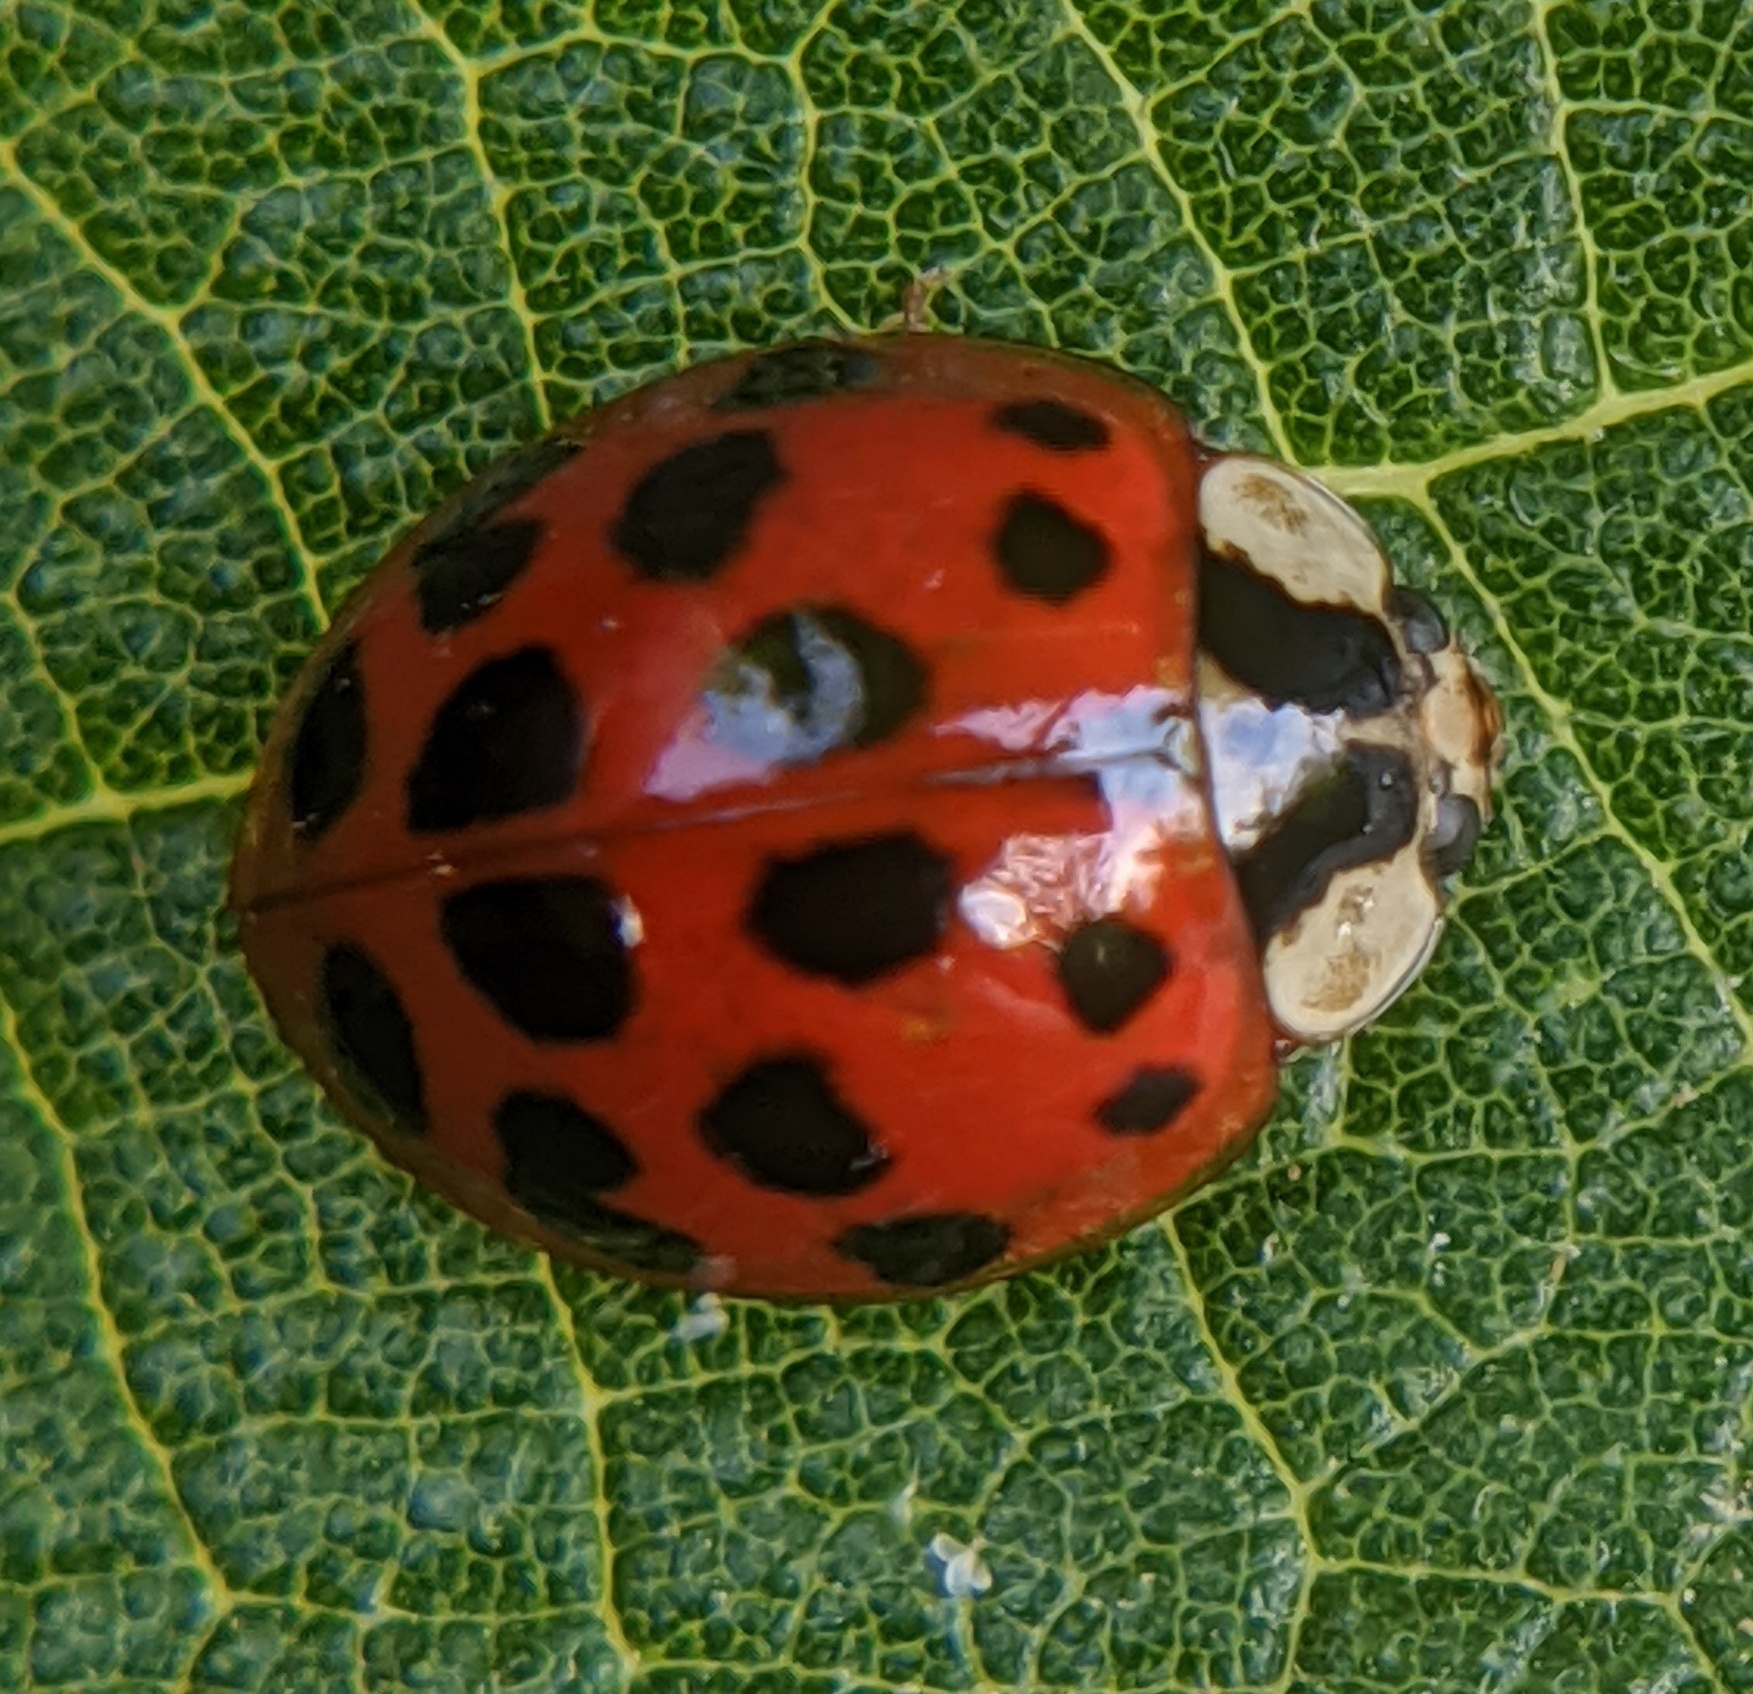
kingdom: Animalia
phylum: Arthropoda
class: Insecta
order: Coleoptera
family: Coccinellidae
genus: Harmonia
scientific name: Harmonia axyridis
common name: Harlequin ladybird
